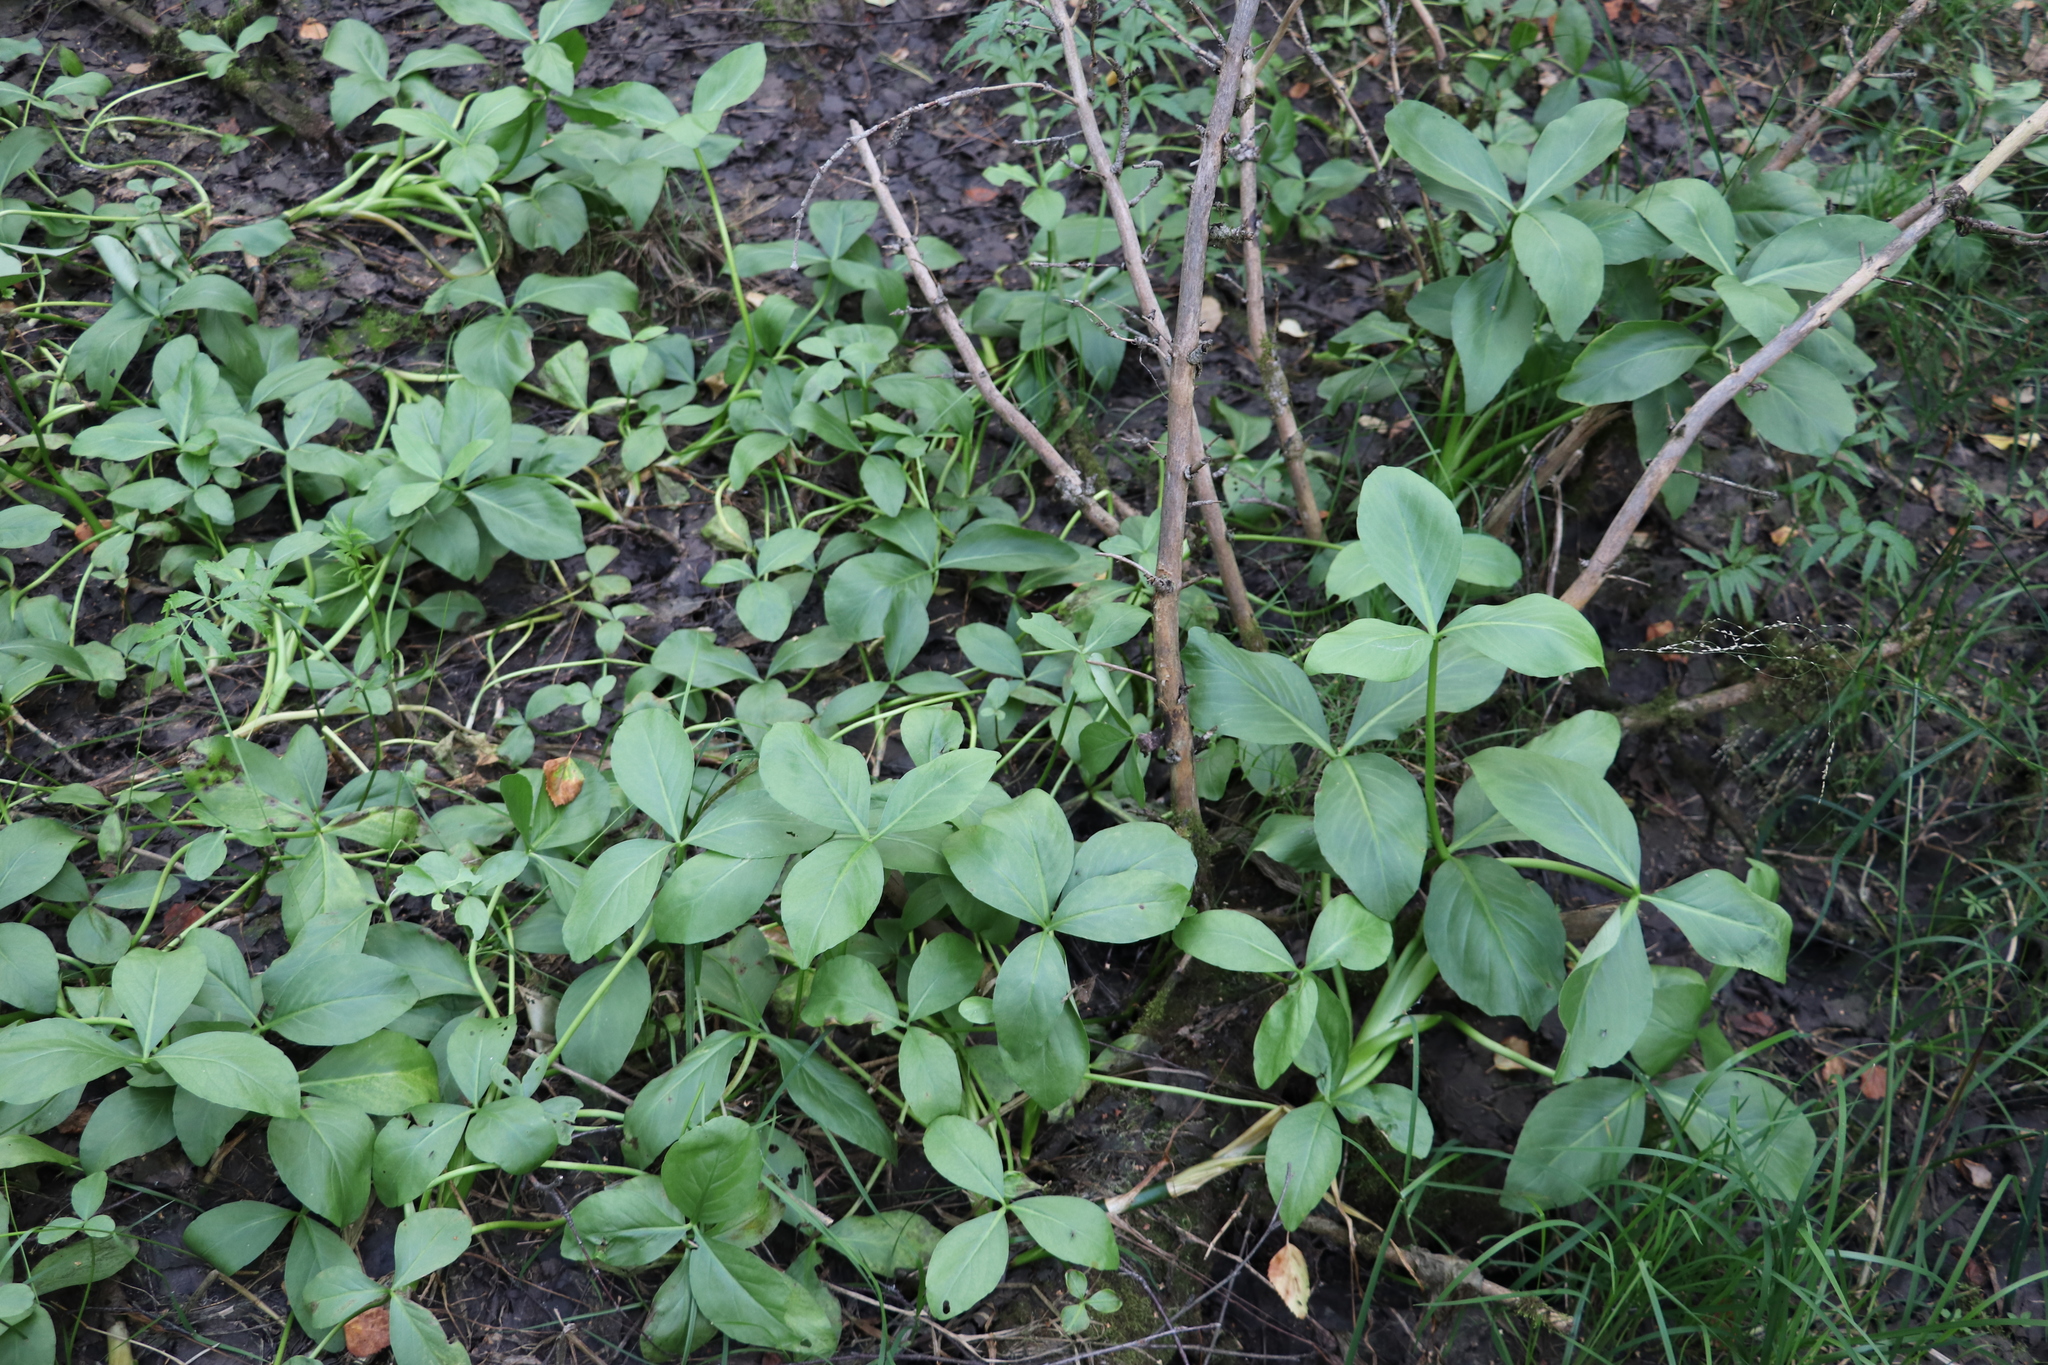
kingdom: Plantae
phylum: Tracheophyta
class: Magnoliopsida
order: Asterales
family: Menyanthaceae
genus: Menyanthes
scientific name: Menyanthes trifoliata
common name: Bogbean
